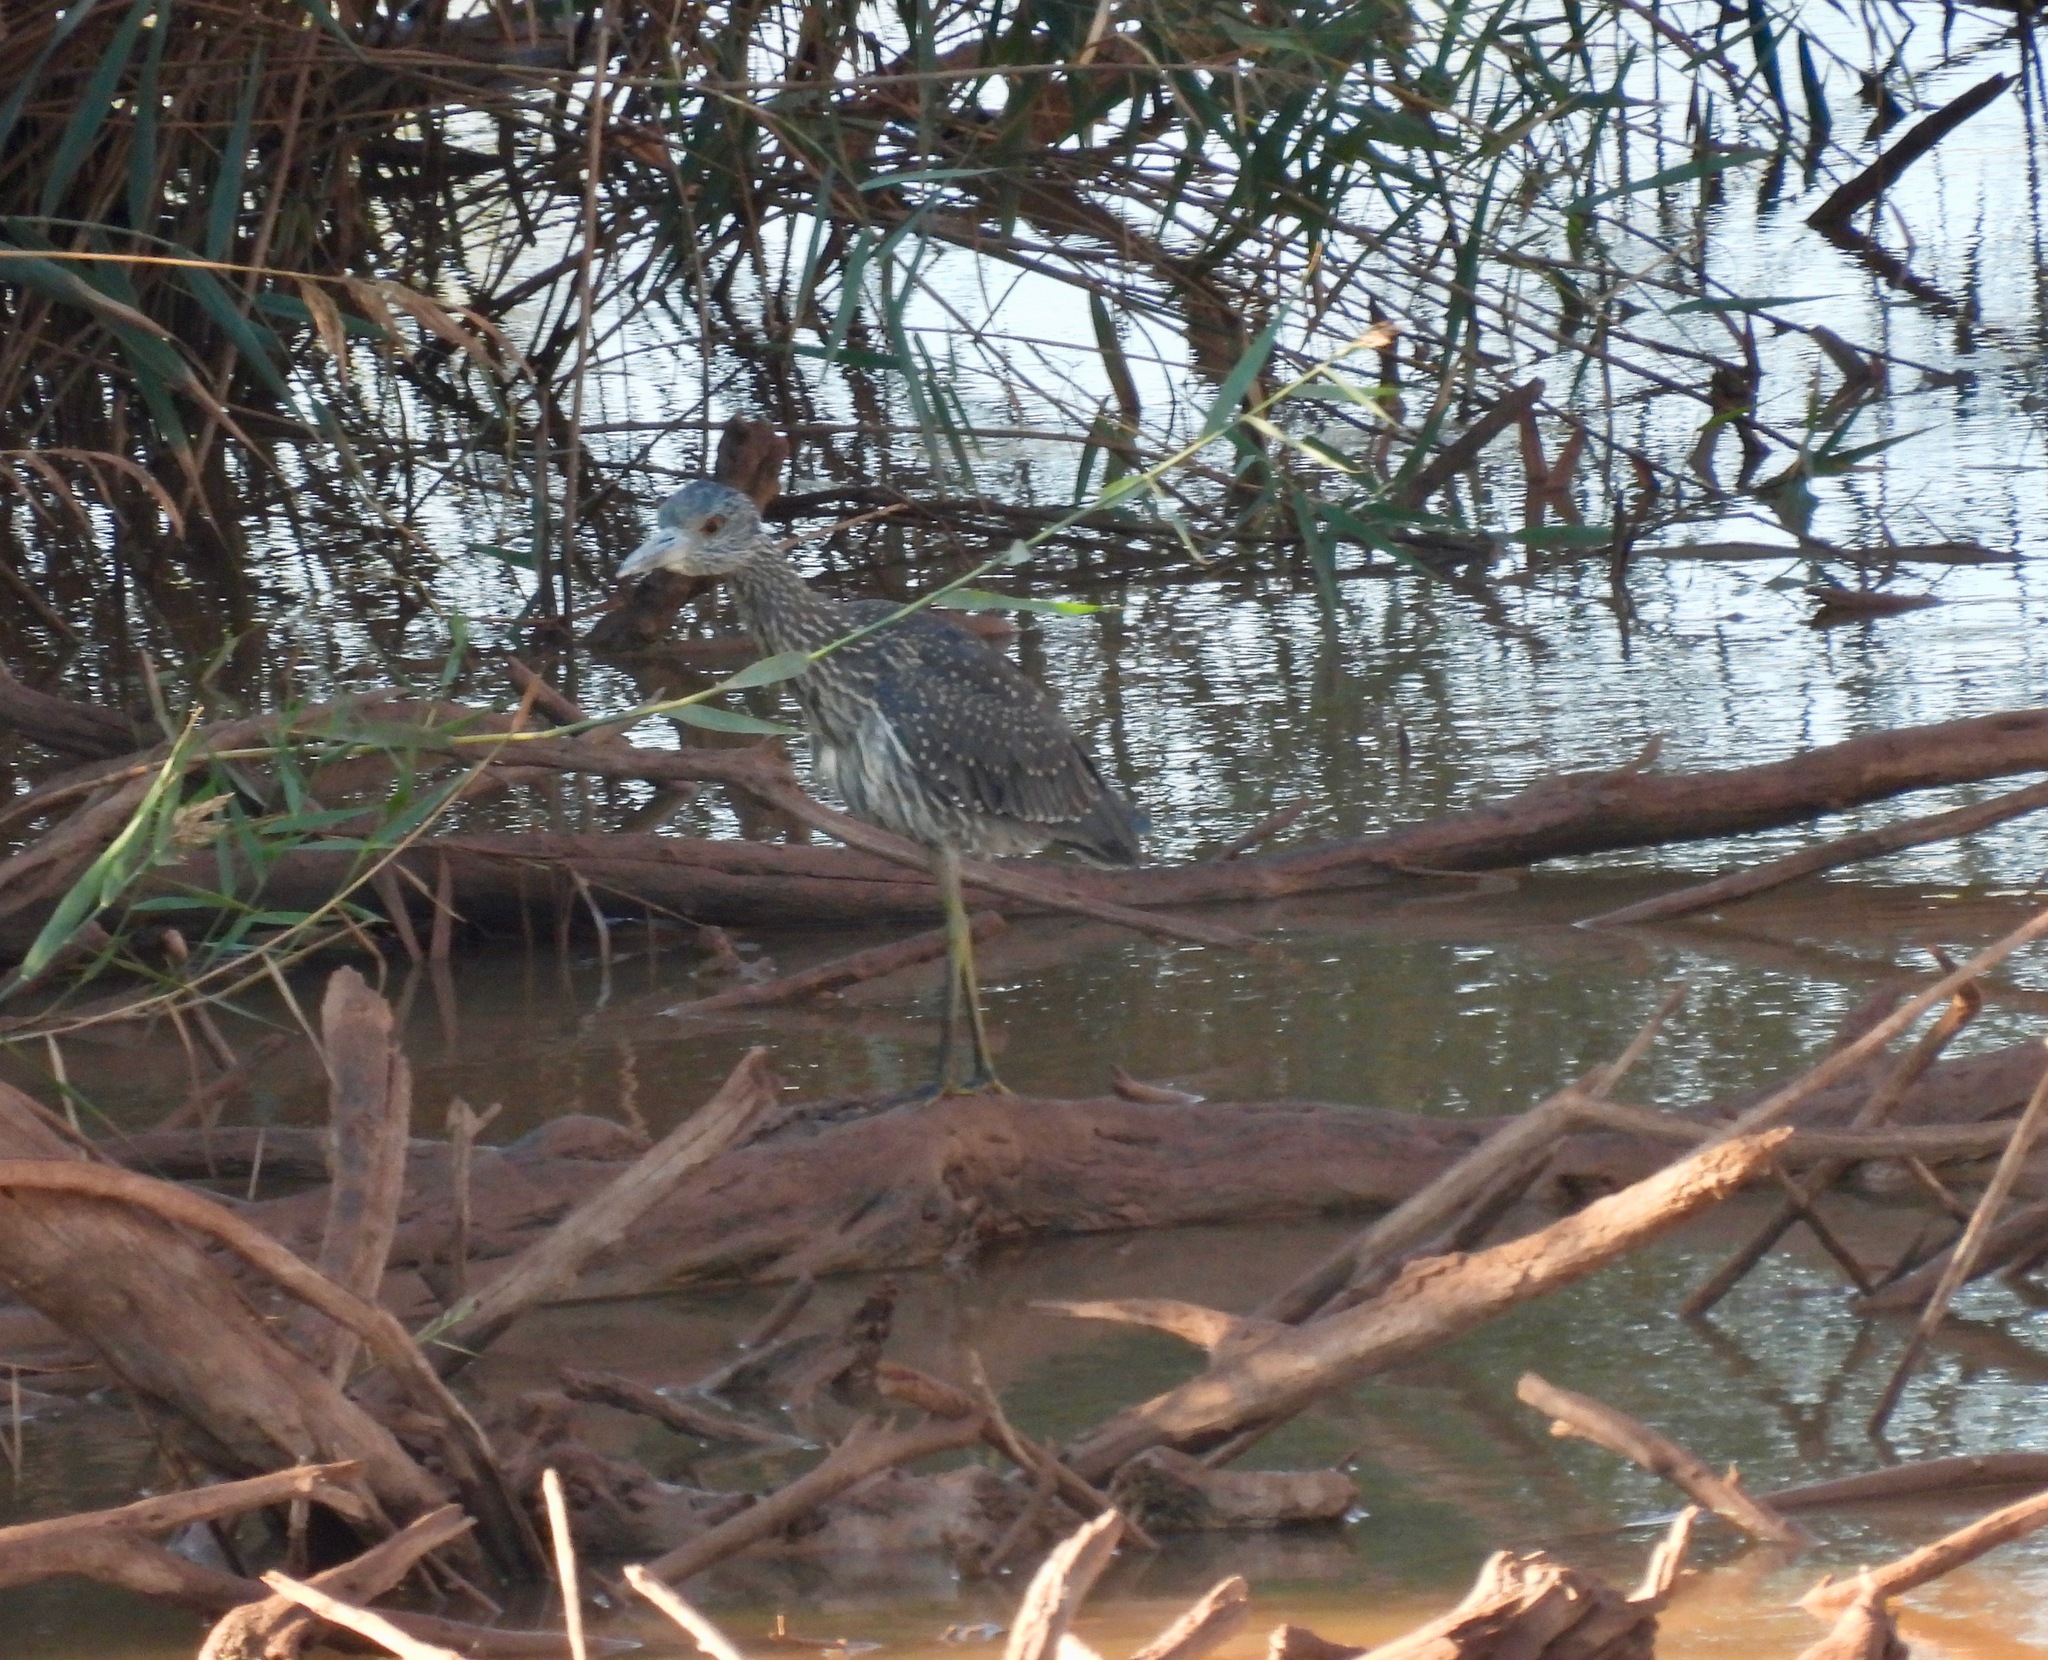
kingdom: Animalia
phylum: Chordata
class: Aves
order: Pelecaniformes
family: Ardeidae
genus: Nyctanassa
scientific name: Nyctanassa violacea
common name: Yellow-crowned night heron
